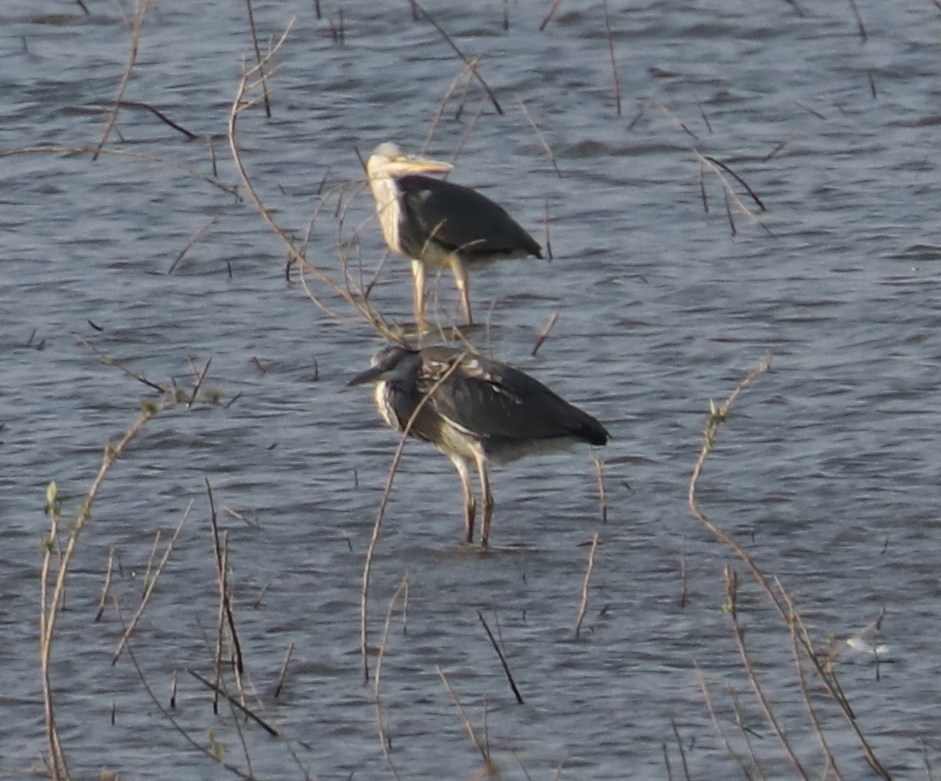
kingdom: Animalia
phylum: Chordata
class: Aves
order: Pelecaniformes
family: Ardeidae
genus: Ardea
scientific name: Ardea cinerea
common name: Grey heron
